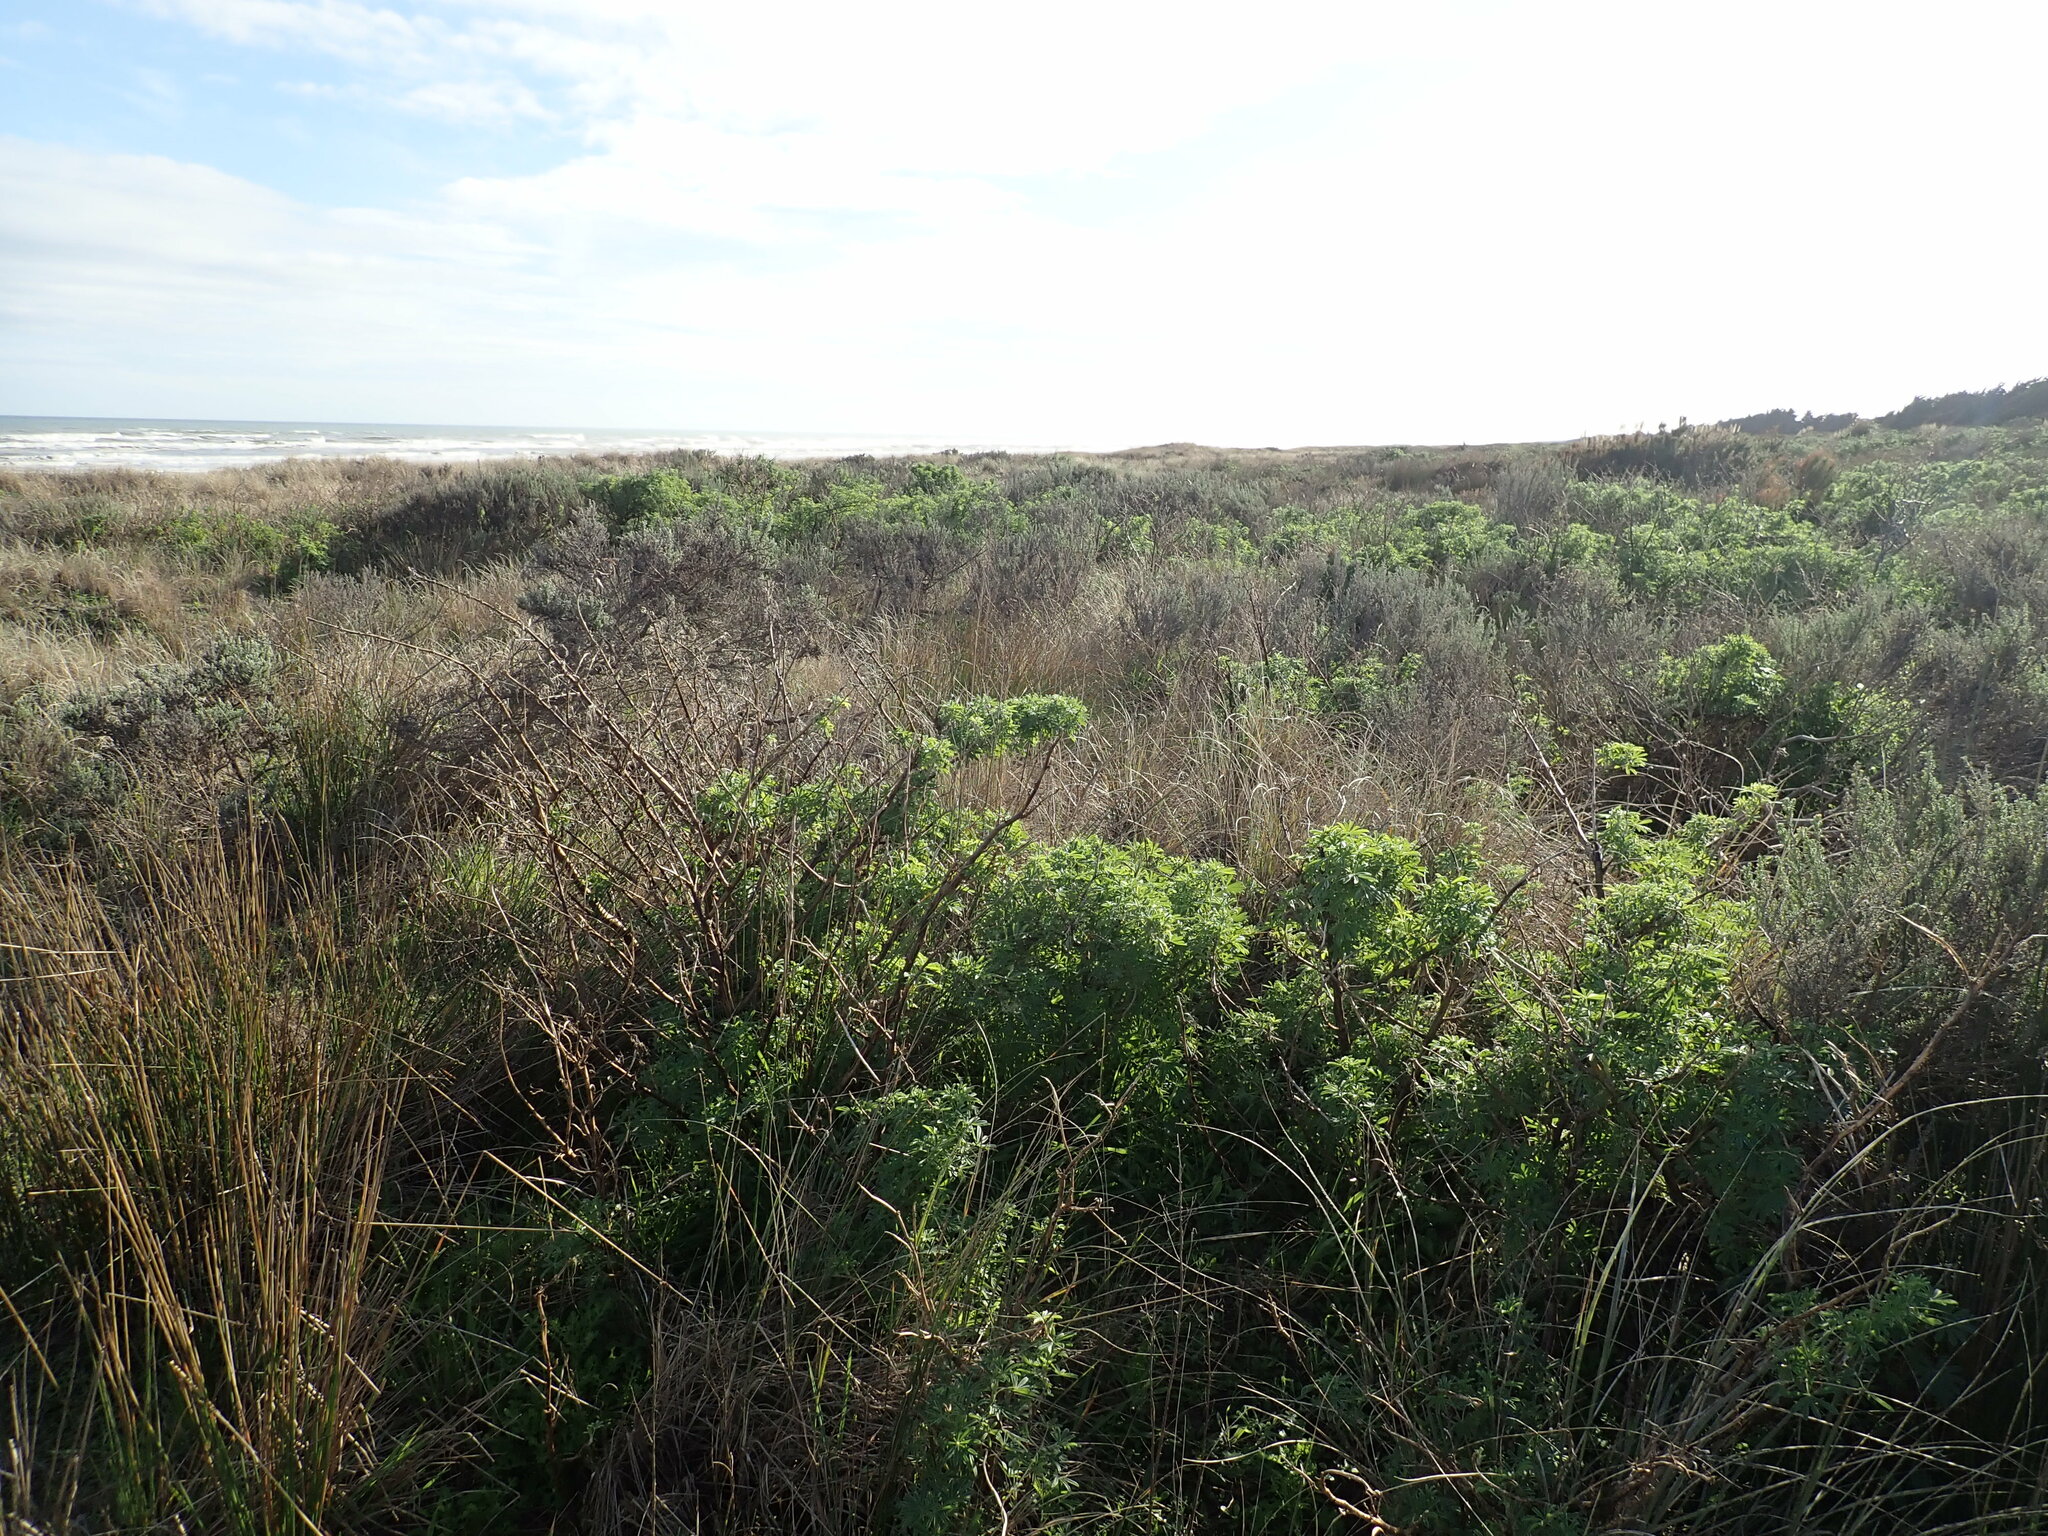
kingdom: Plantae
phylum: Tracheophyta
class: Magnoliopsida
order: Fabales
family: Fabaceae
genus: Lupinus
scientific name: Lupinus arboreus
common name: Yellow bush lupine
